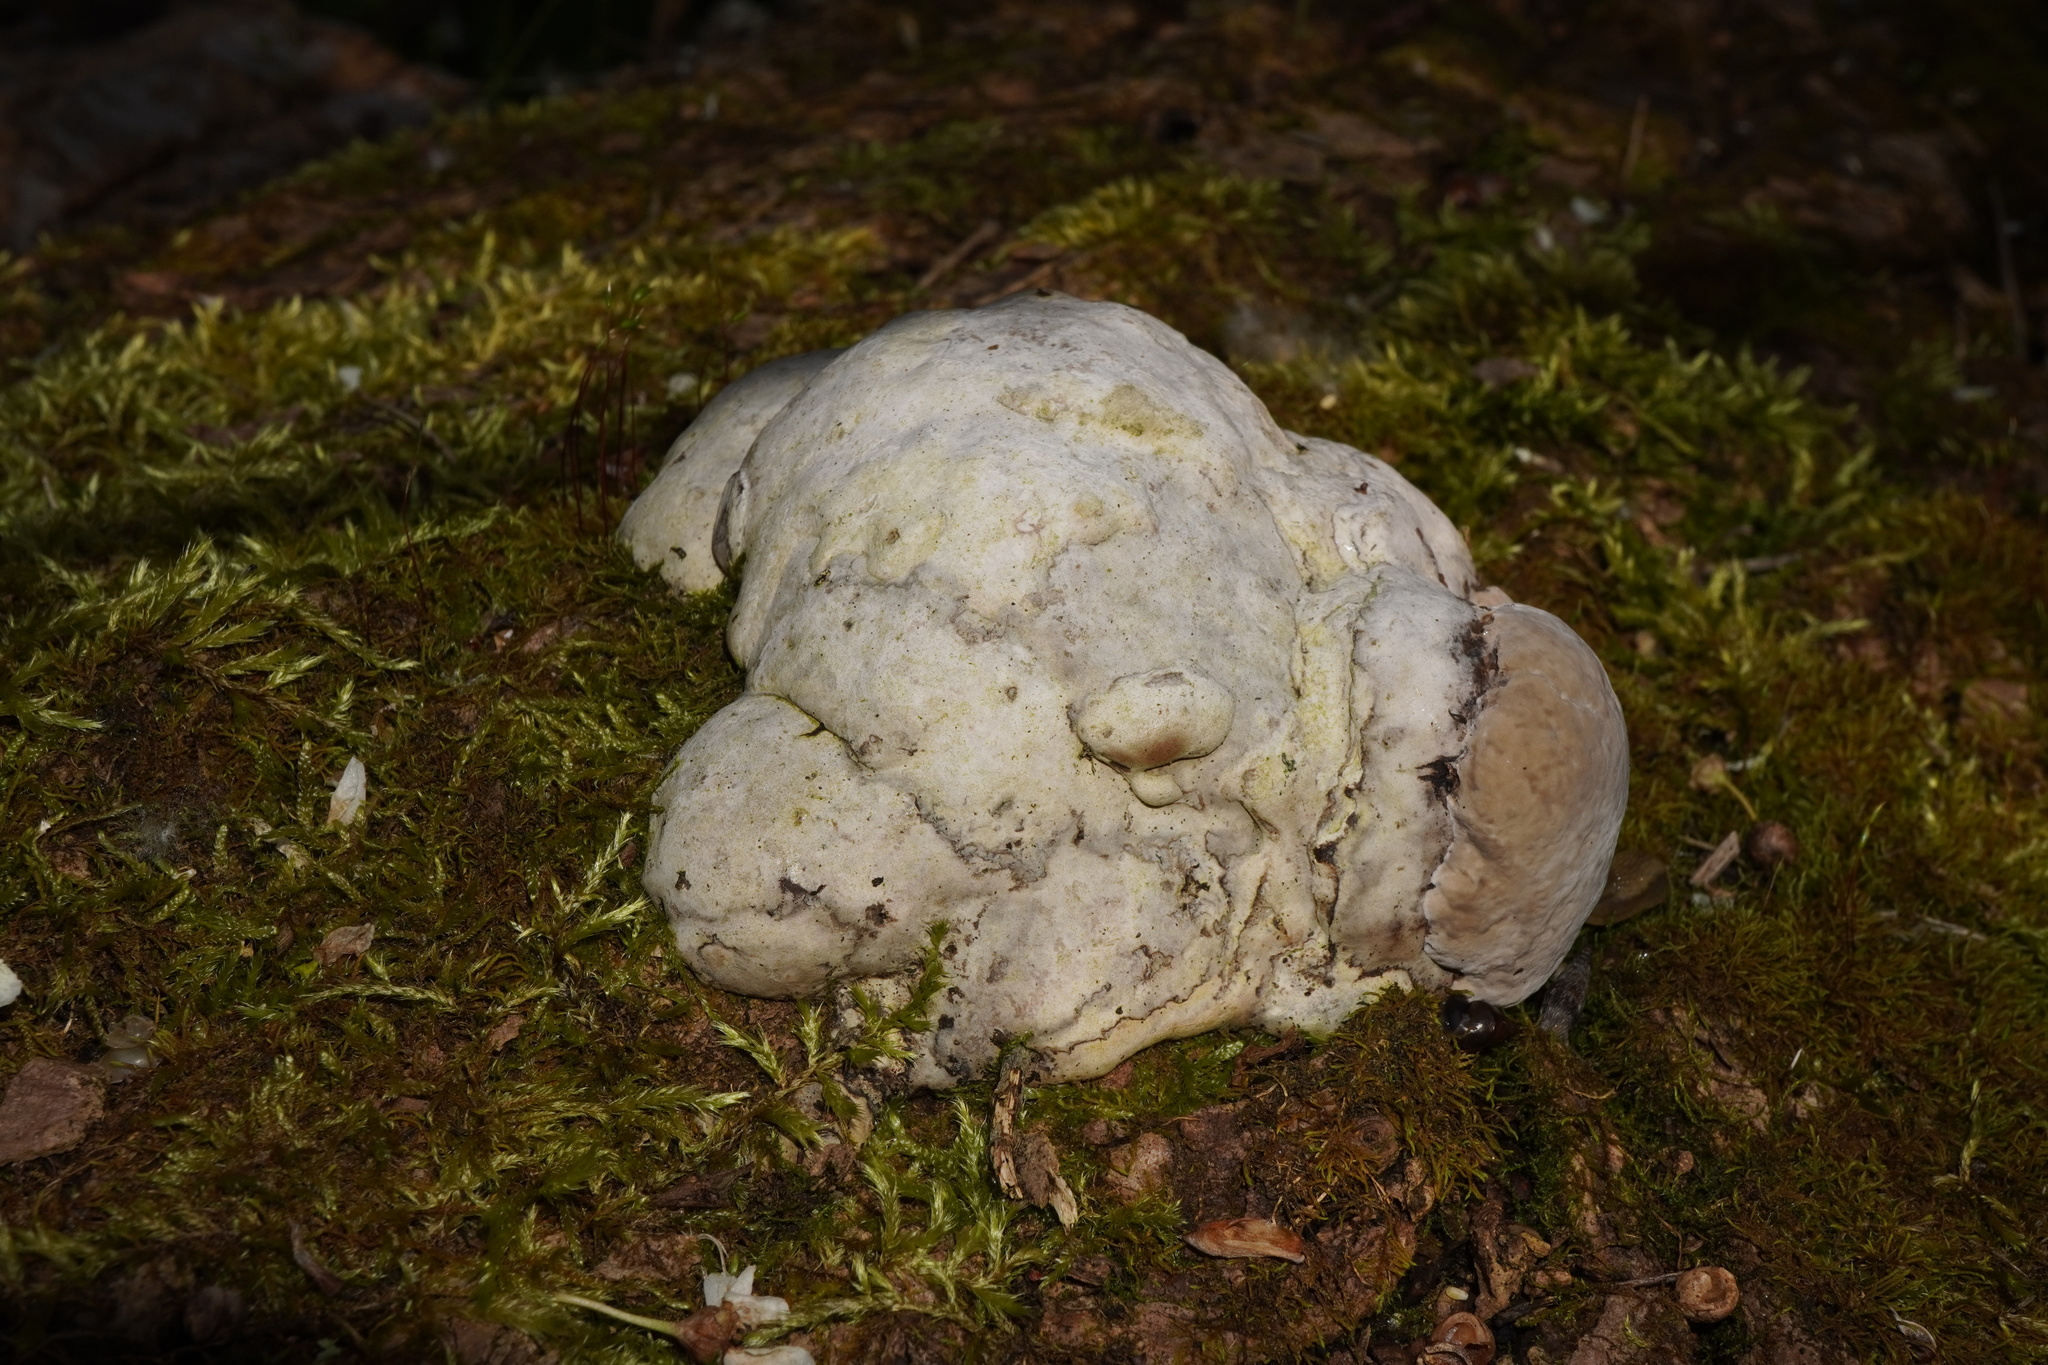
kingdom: Fungi
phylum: Basidiomycota
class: Agaricomycetes
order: Polyporales
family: Polyporaceae
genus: Fomes
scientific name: Fomes fomentarius
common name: Hoof fungus
